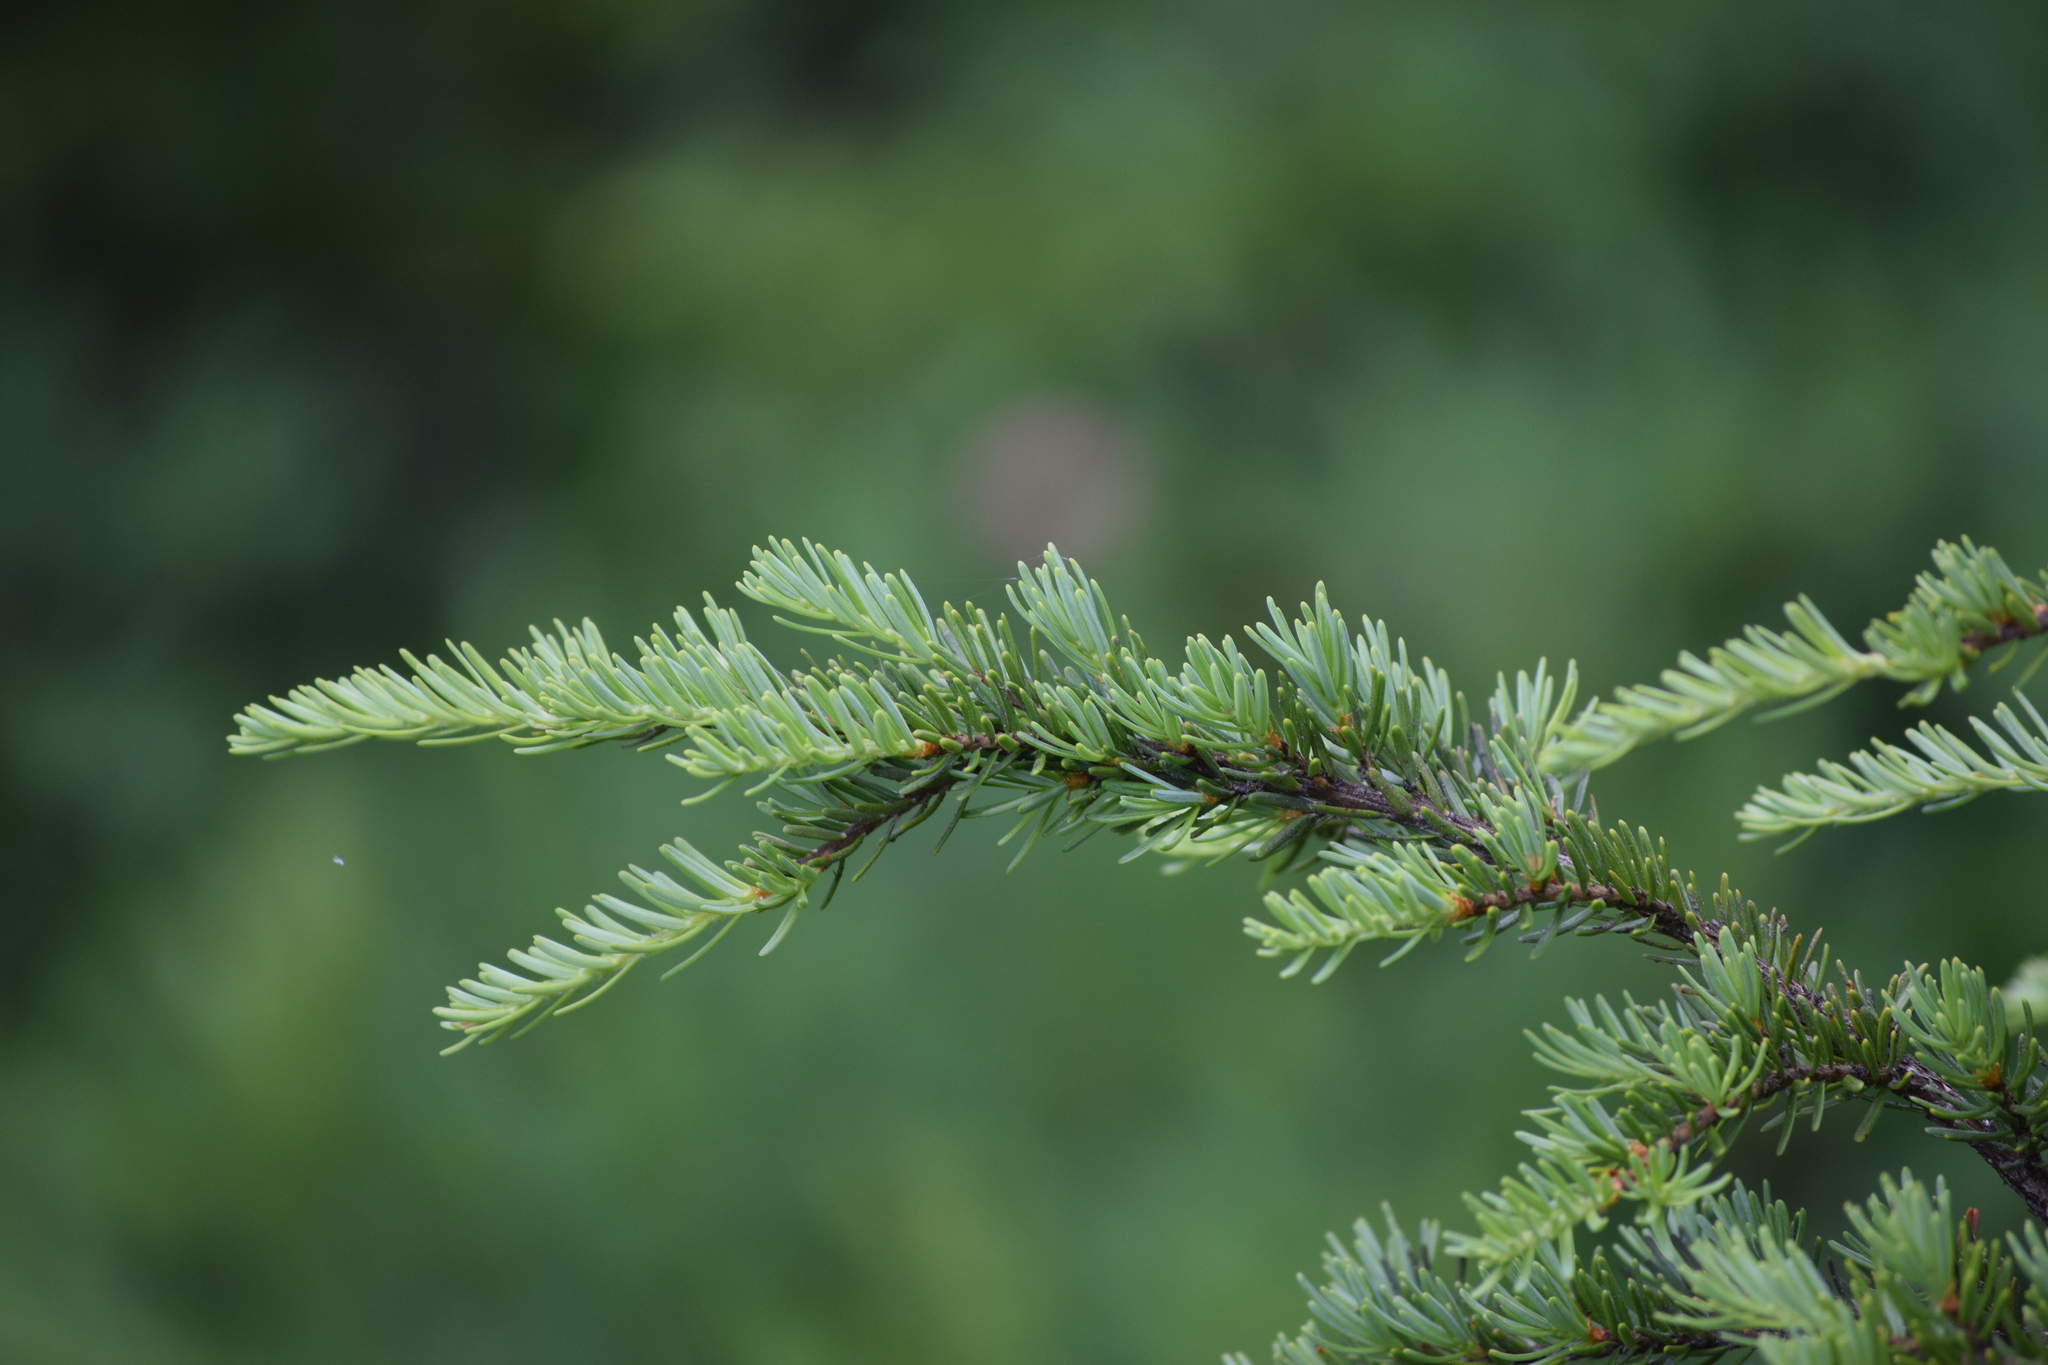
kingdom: Plantae
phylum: Tracheophyta
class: Pinopsida
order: Pinales
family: Pinaceae
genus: Tsuga
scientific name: Tsuga mertensiana
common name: Mountain hemlock
